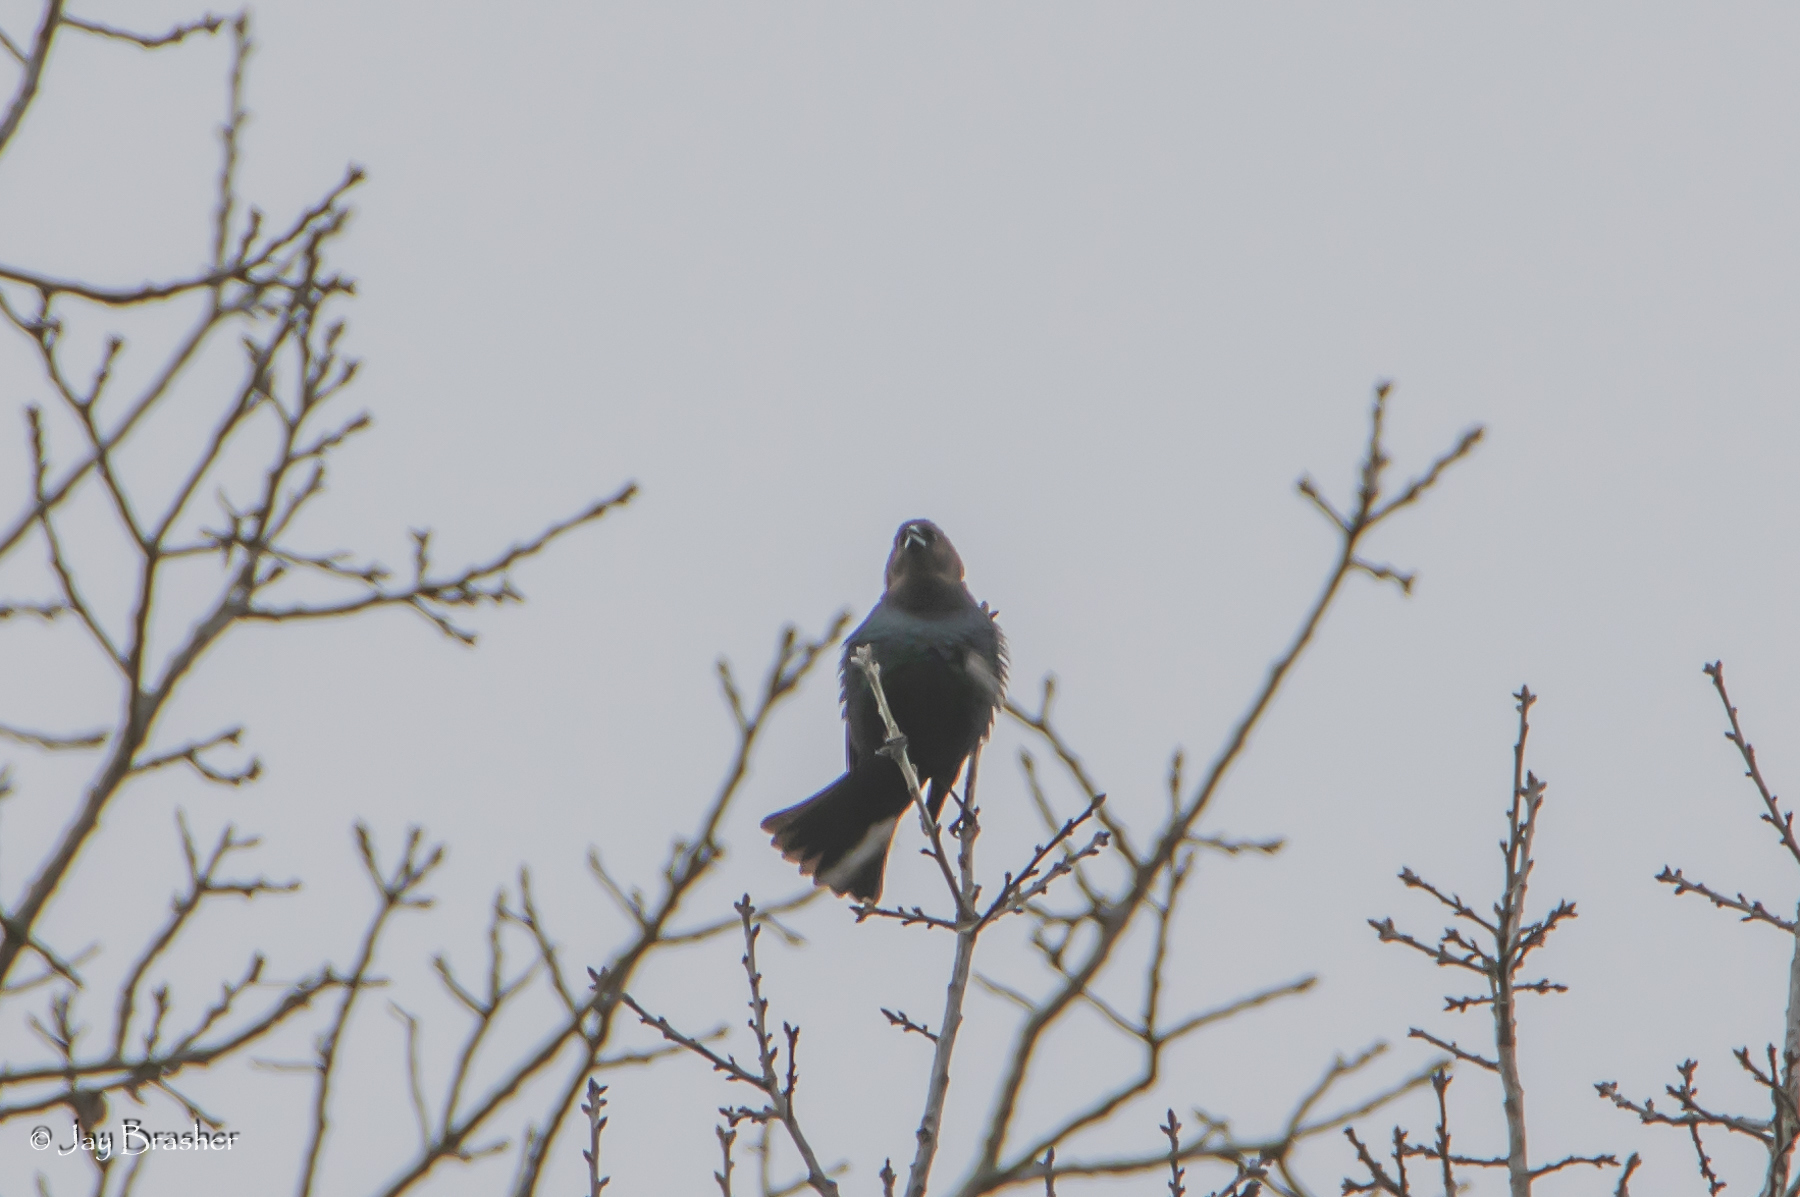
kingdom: Animalia
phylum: Chordata
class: Aves
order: Passeriformes
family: Icteridae
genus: Molothrus
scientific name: Molothrus ater
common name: Brown-headed cowbird
